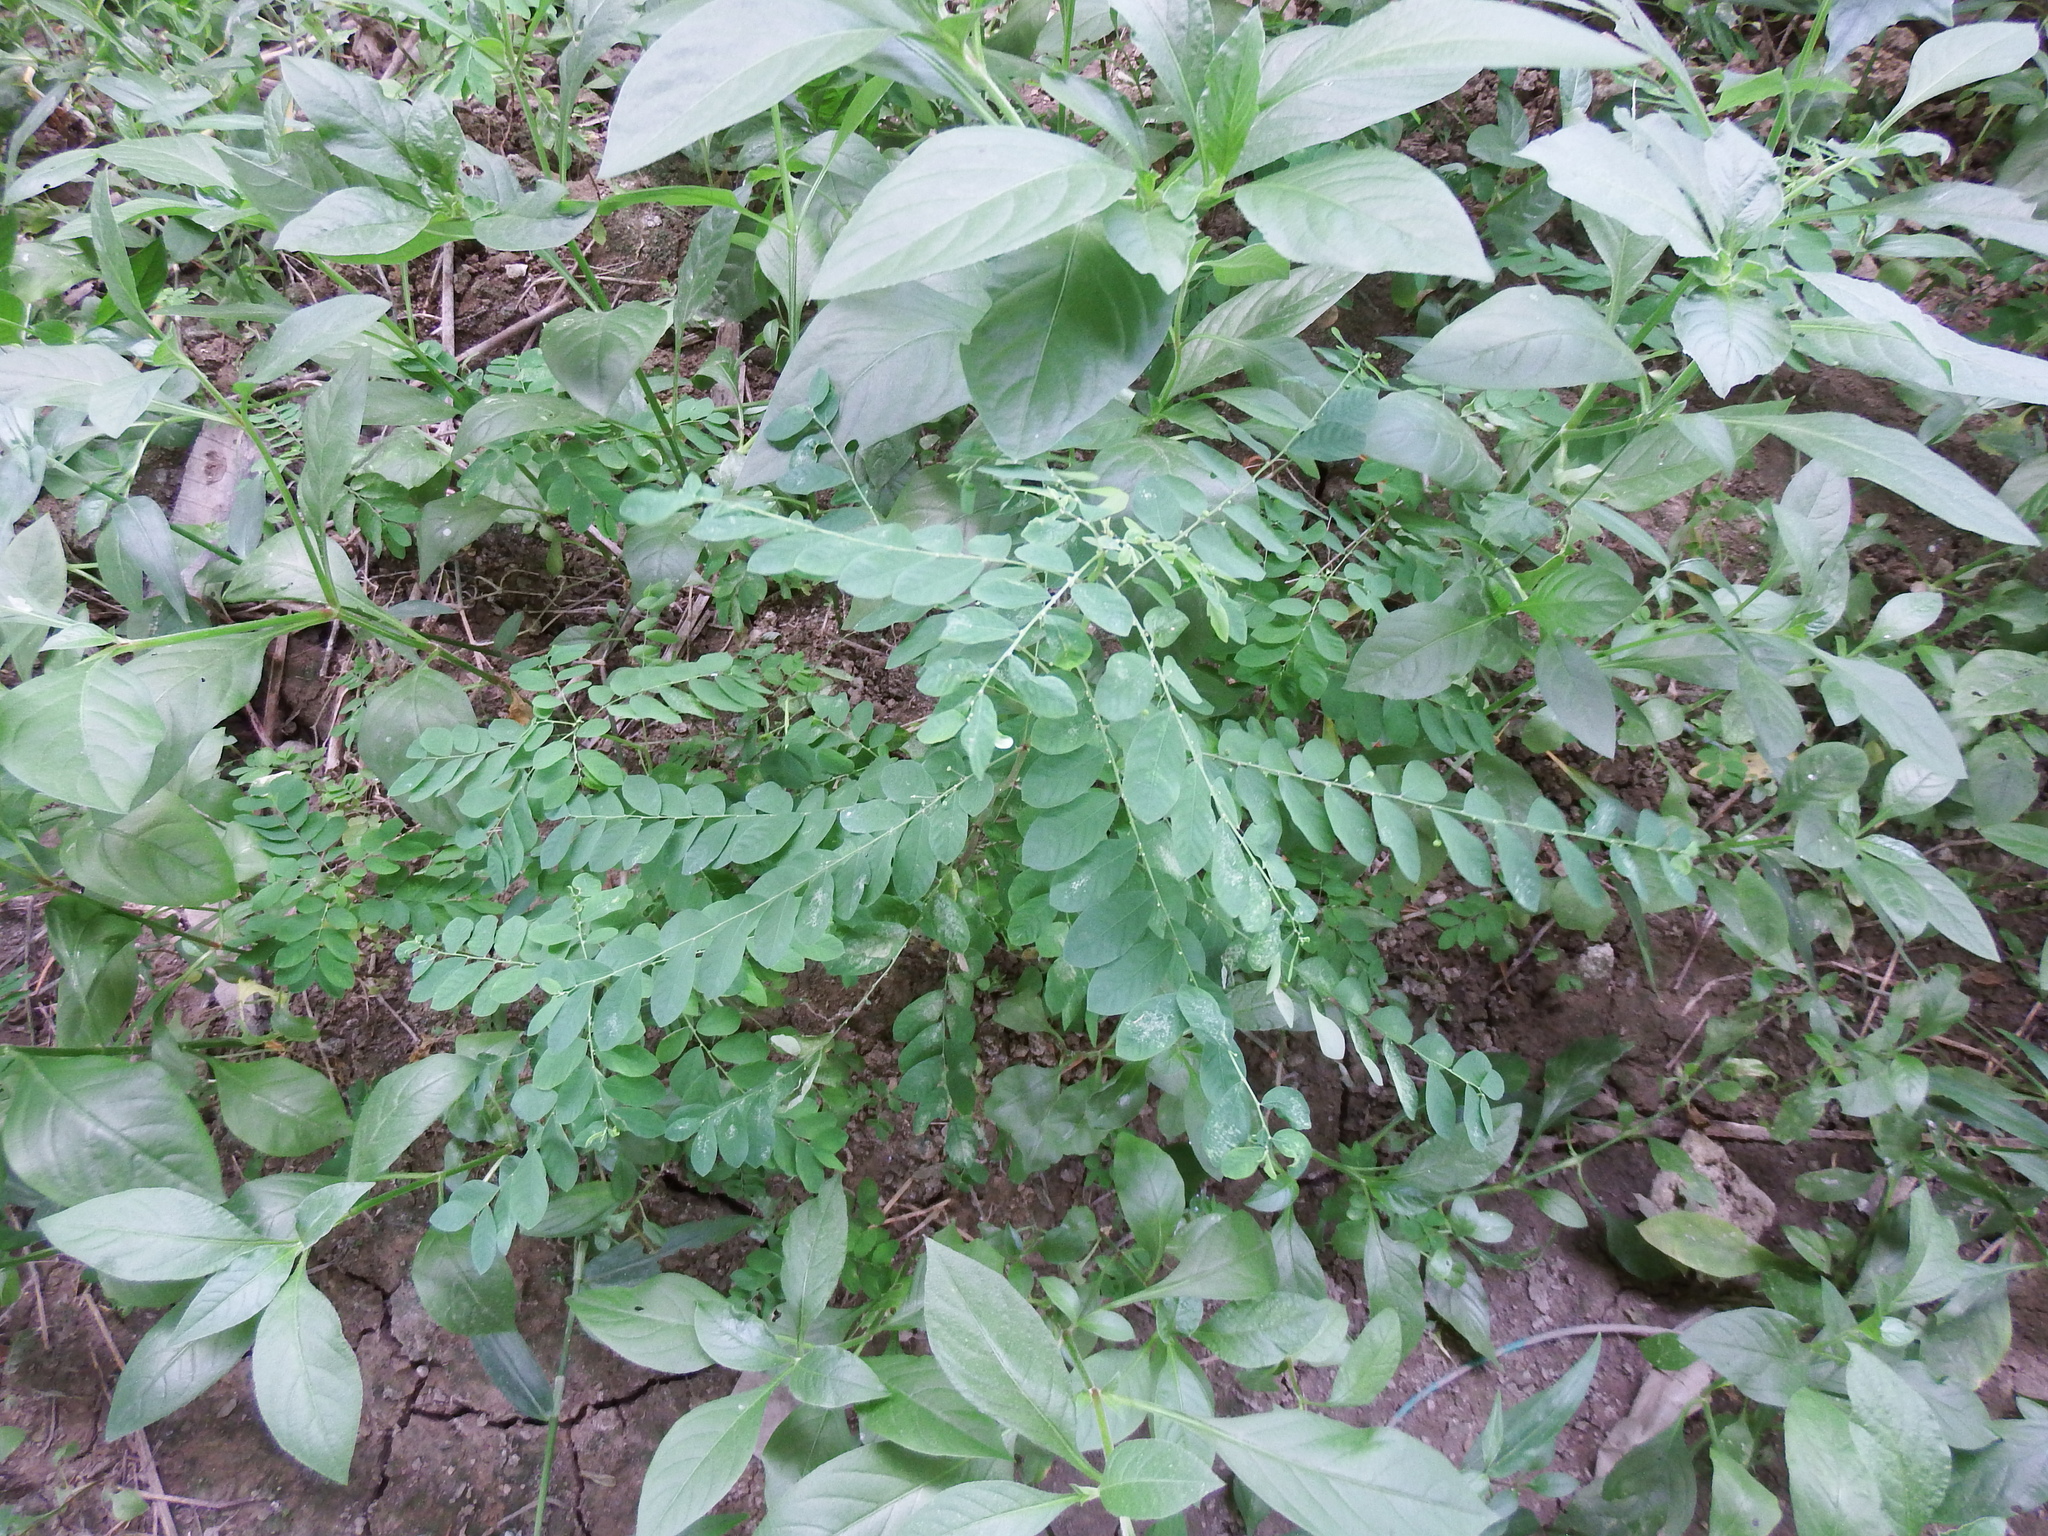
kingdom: Plantae
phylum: Tracheophyta
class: Magnoliopsida
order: Malpighiales
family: Phyllanthaceae
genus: Phyllanthus
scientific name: Phyllanthus tenellus
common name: Mascarene island leaf-flower
